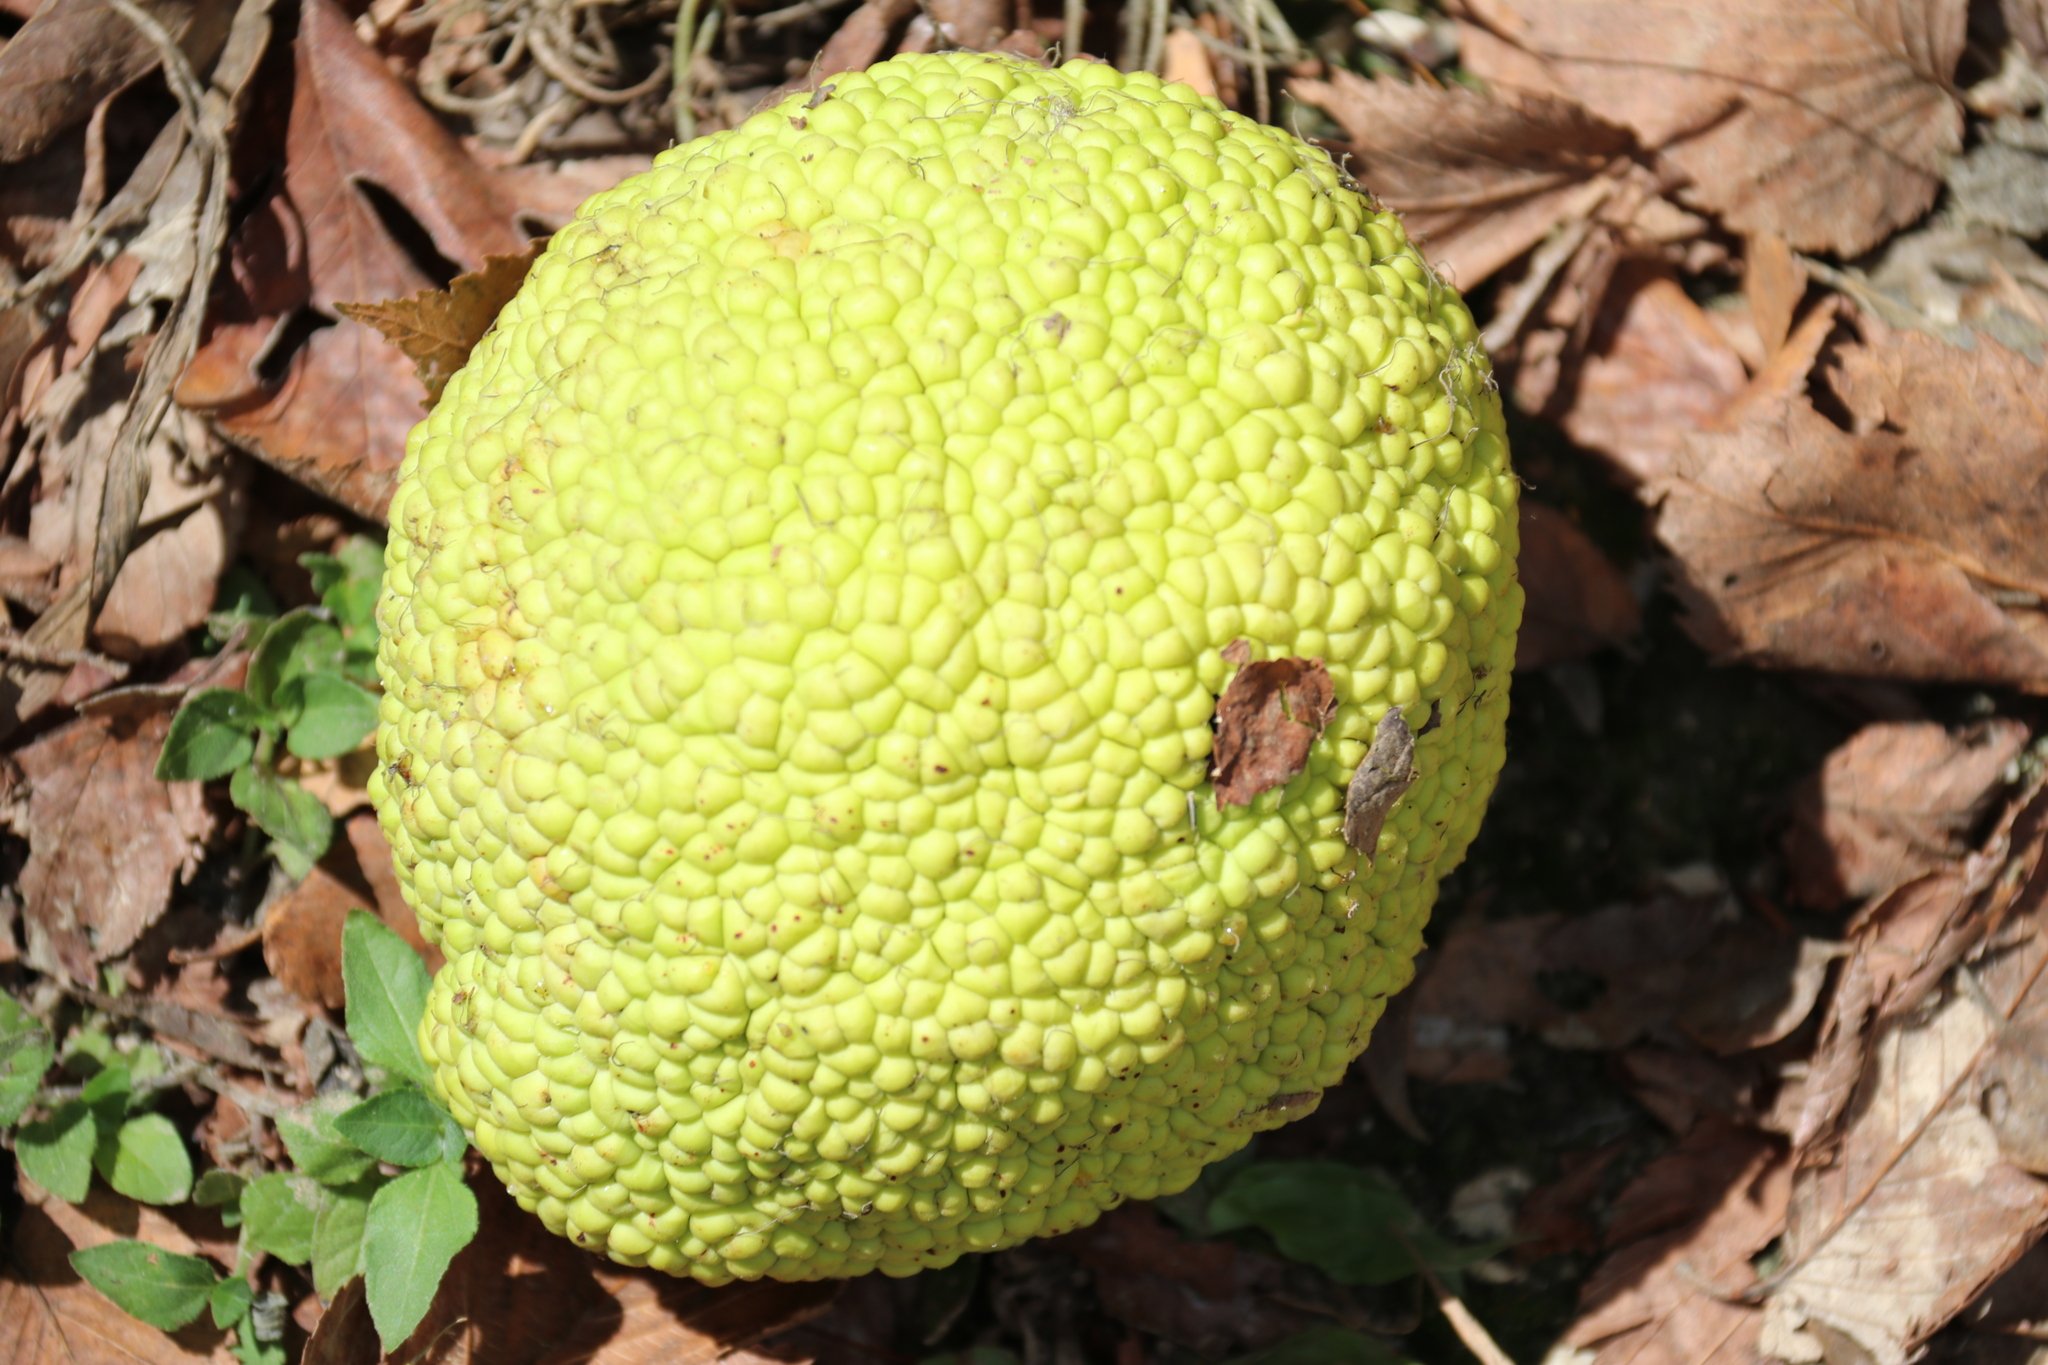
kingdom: Plantae
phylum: Tracheophyta
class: Magnoliopsida
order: Rosales
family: Moraceae
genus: Maclura
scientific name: Maclura pomifera
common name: Osage-orange
